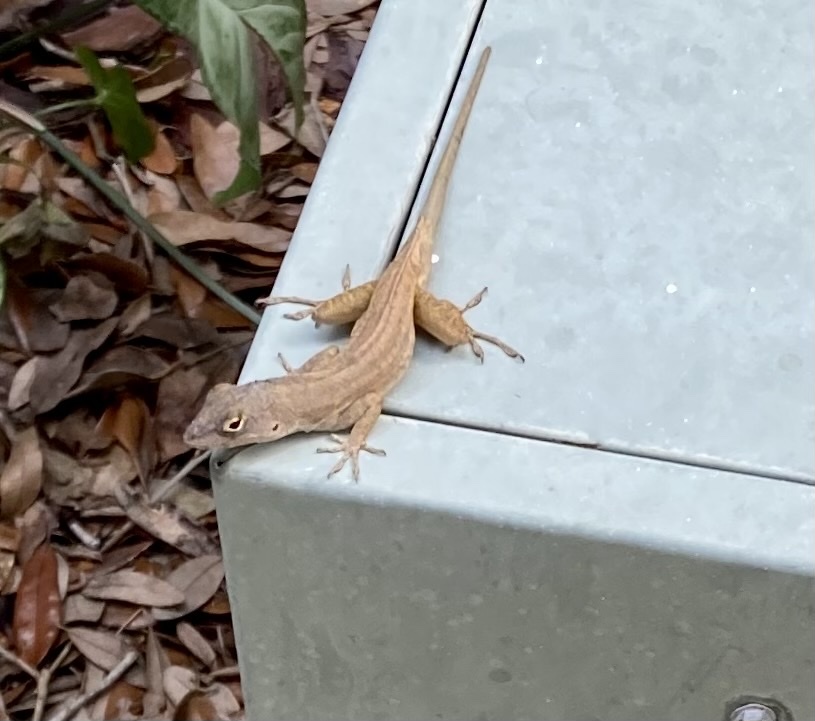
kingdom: Animalia
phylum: Chordata
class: Squamata
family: Dactyloidae
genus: Anolis
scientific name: Anolis sagrei
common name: Brown anole
